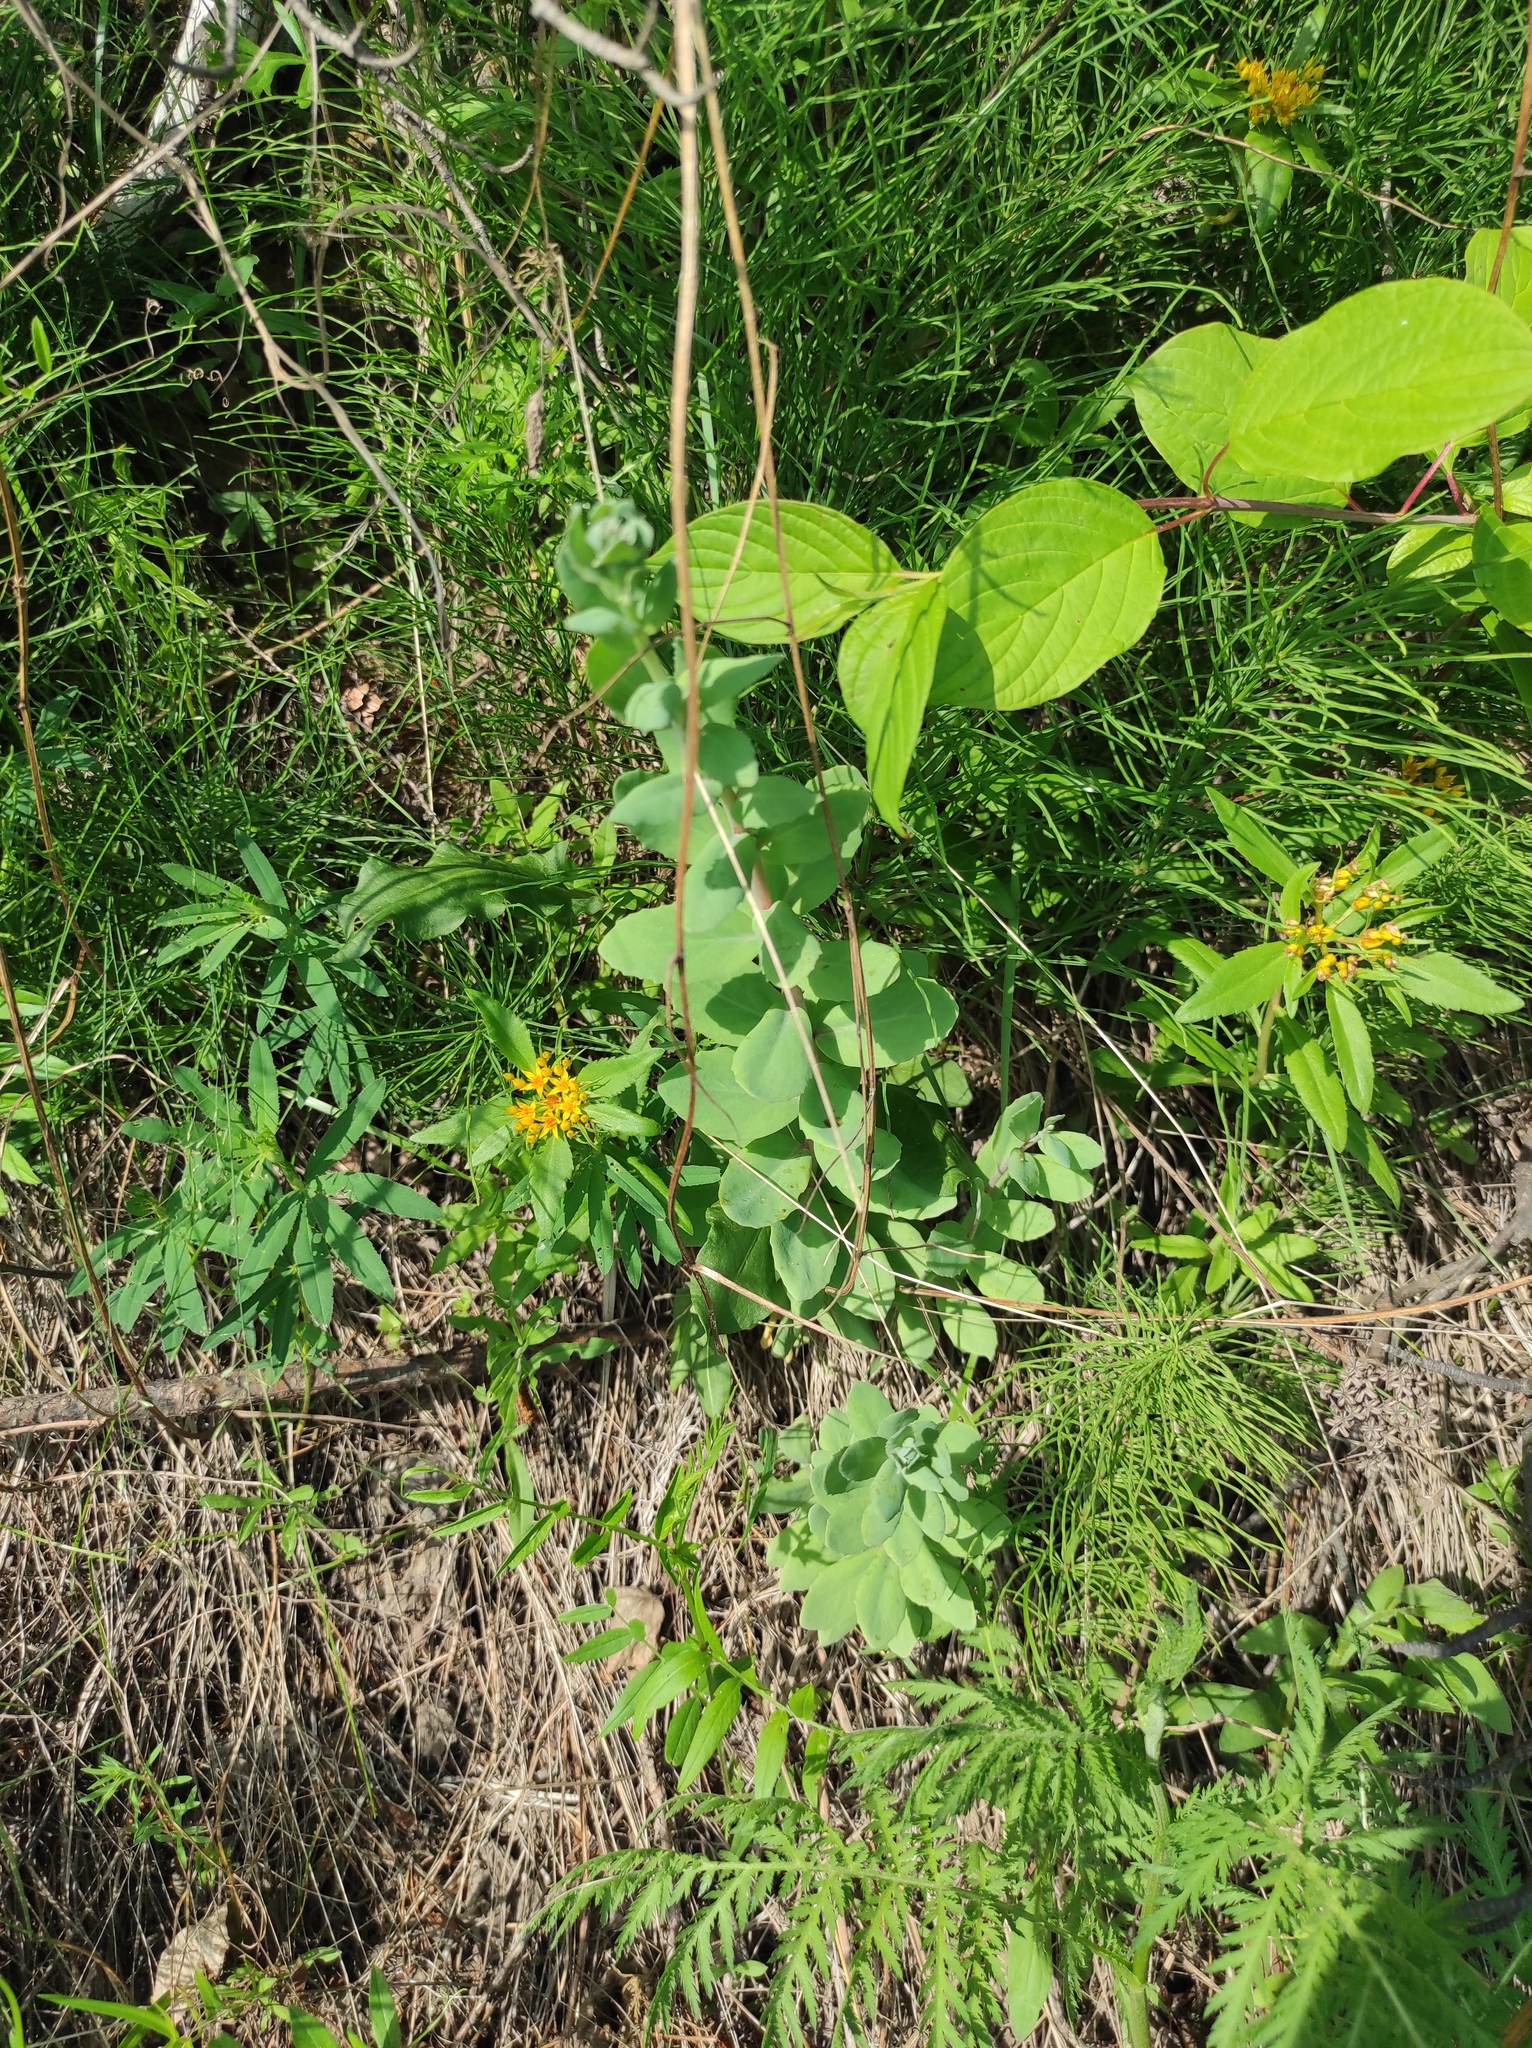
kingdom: Plantae
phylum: Tracheophyta
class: Magnoliopsida
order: Saxifragales
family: Crassulaceae
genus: Phedimus
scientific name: Phedimus aizoon
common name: Orpin aizoon
